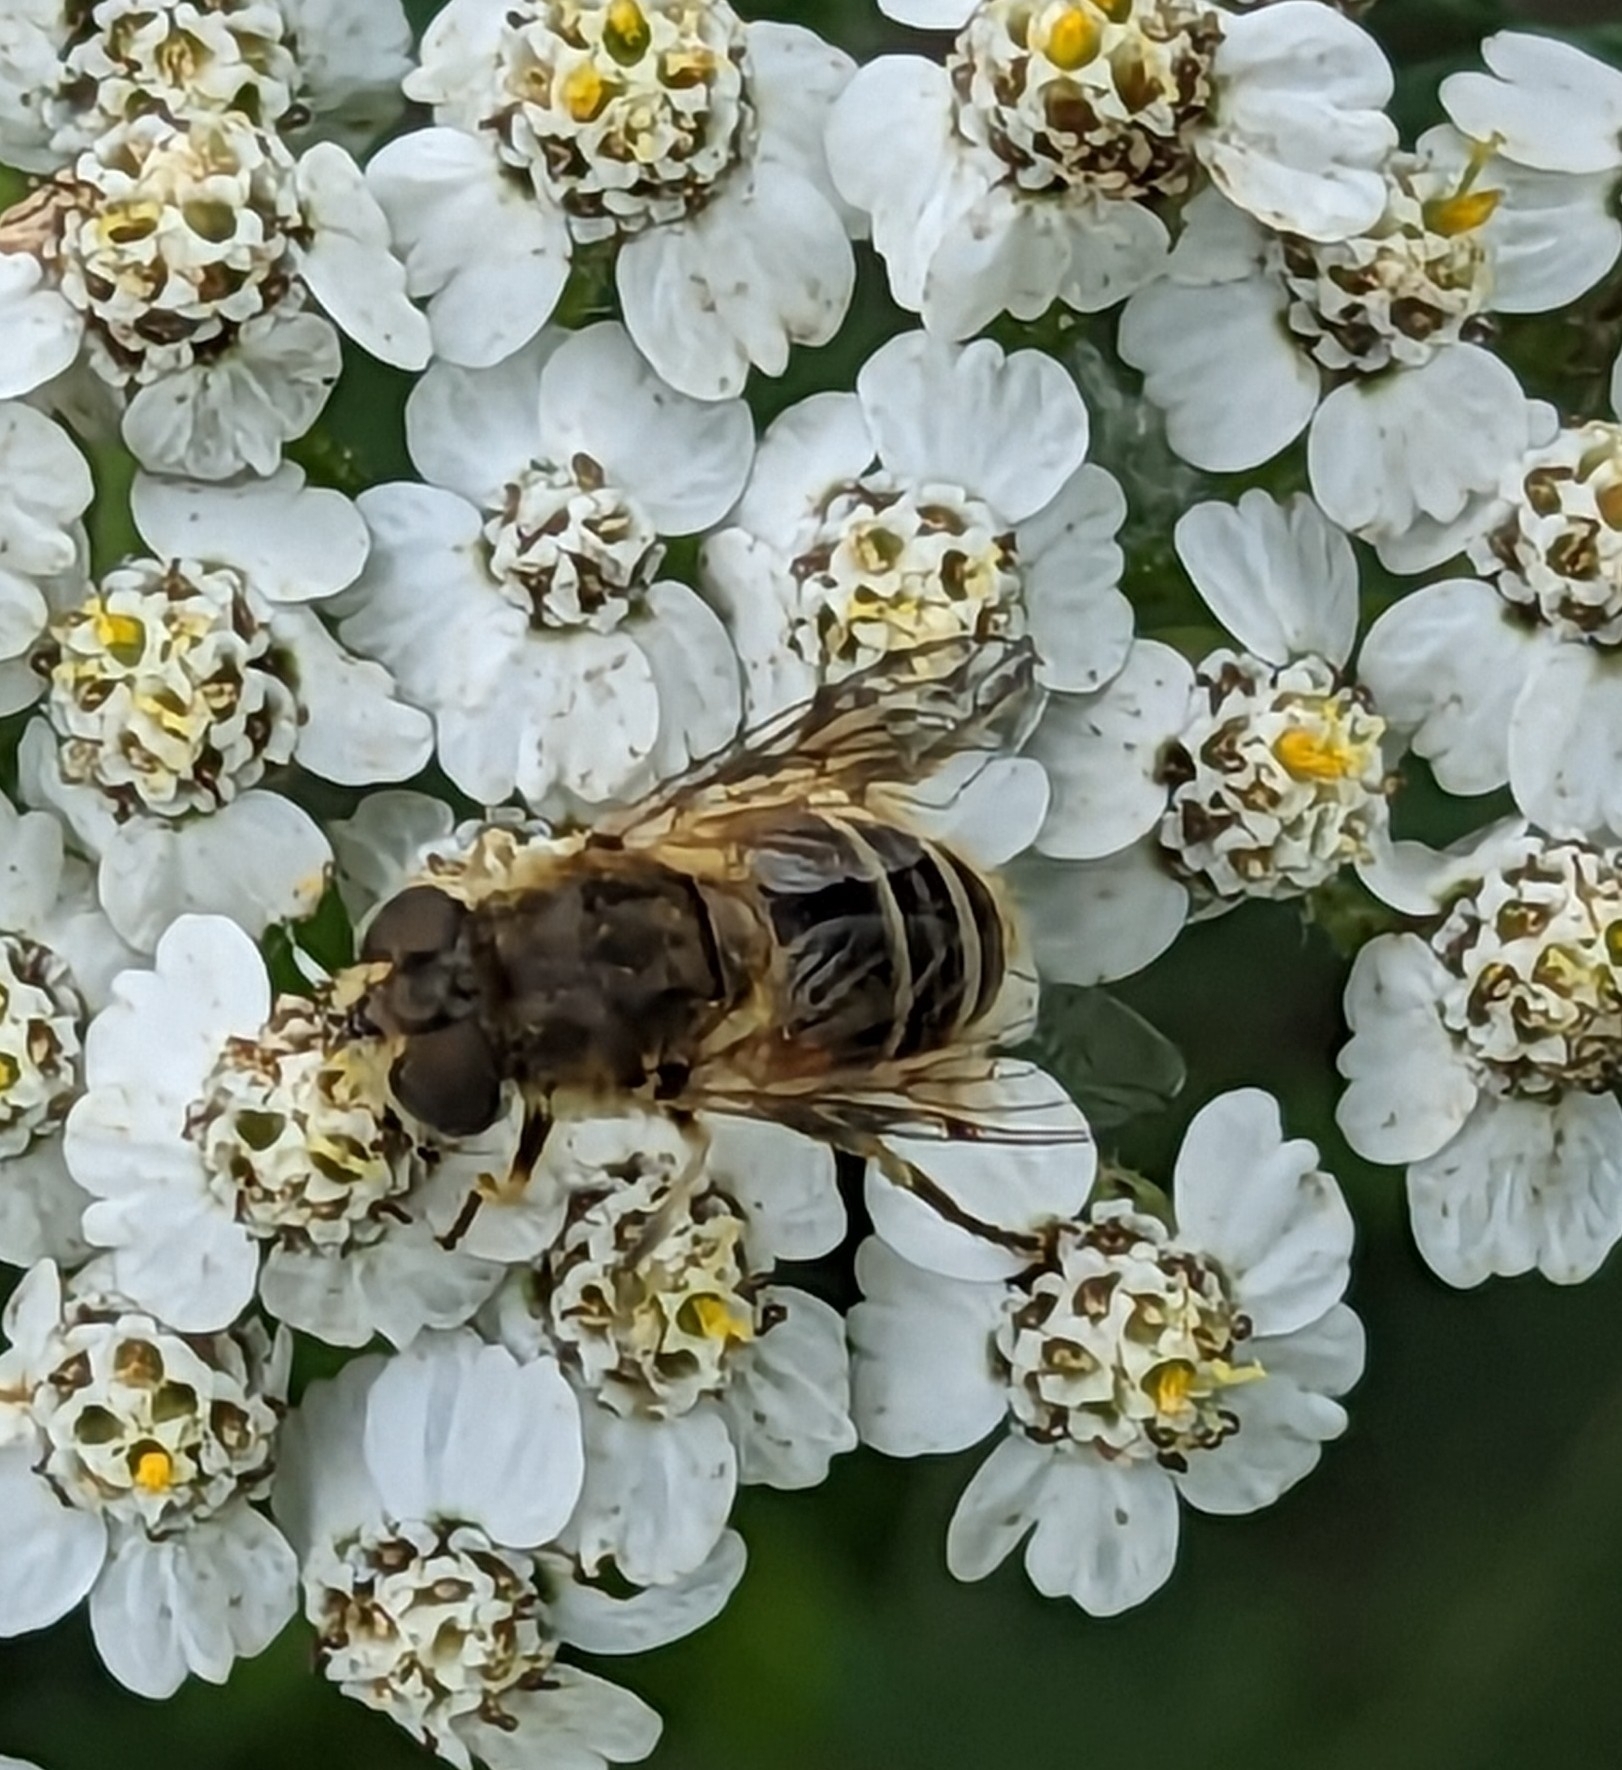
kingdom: Animalia
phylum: Arthropoda
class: Insecta
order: Diptera
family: Syrphidae
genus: Eristalis
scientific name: Eristalis arbustorum
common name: Hover fly
